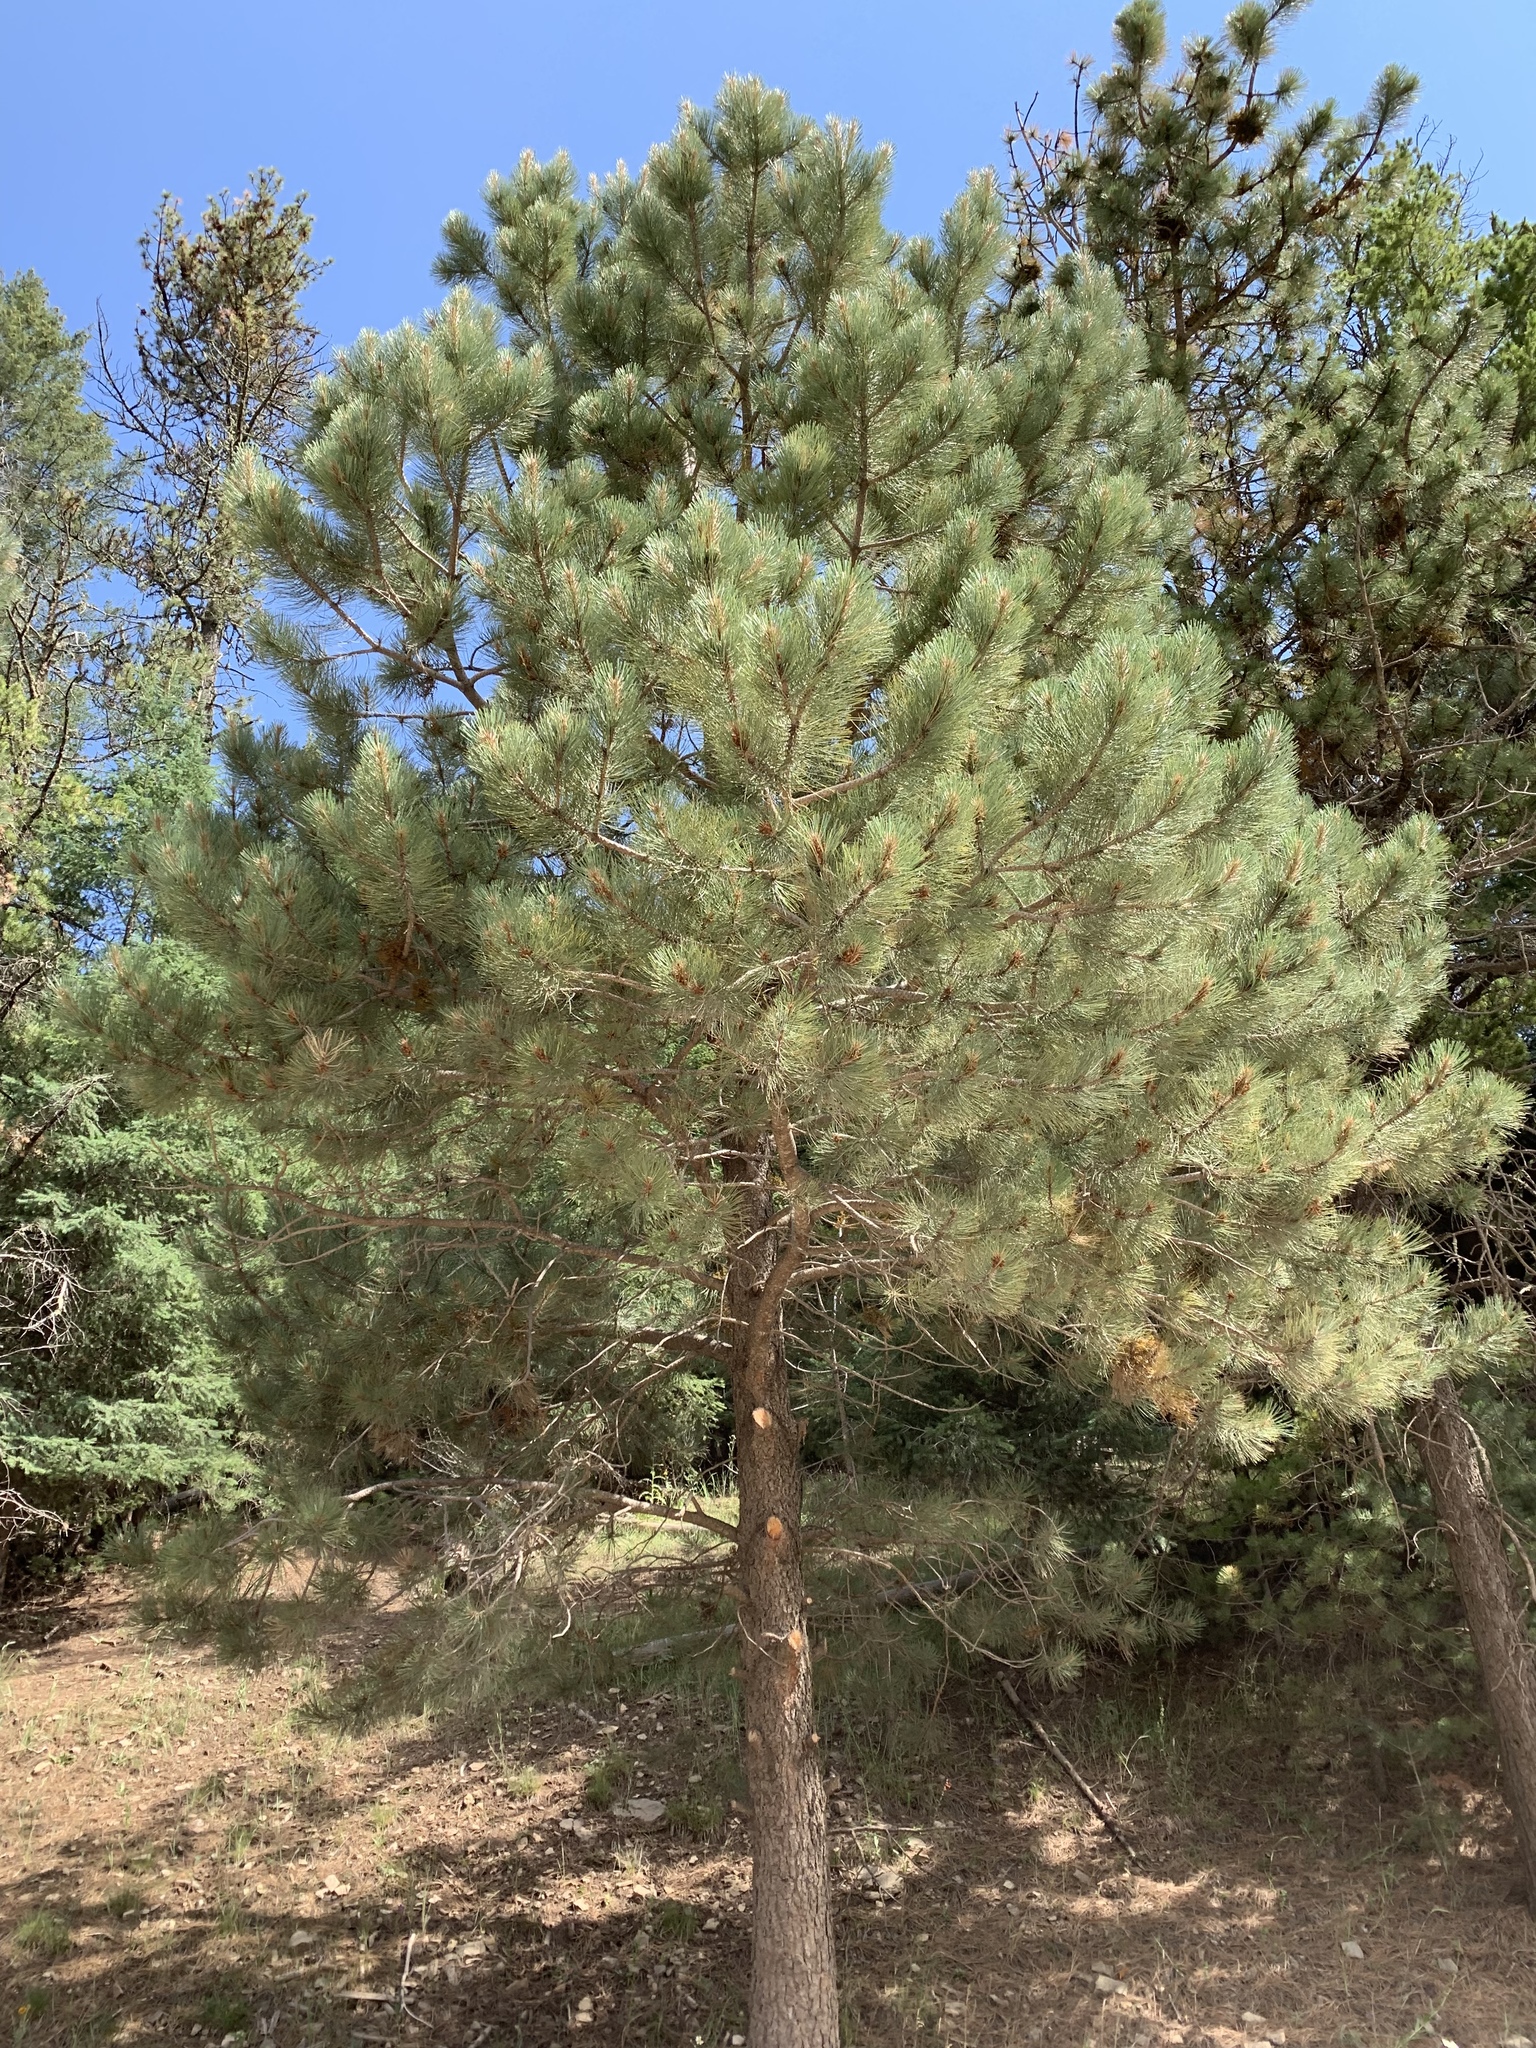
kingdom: Plantae
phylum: Tracheophyta
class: Pinopsida
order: Pinales
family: Pinaceae
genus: Pinus
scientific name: Pinus ponderosa
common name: Western yellow-pine
